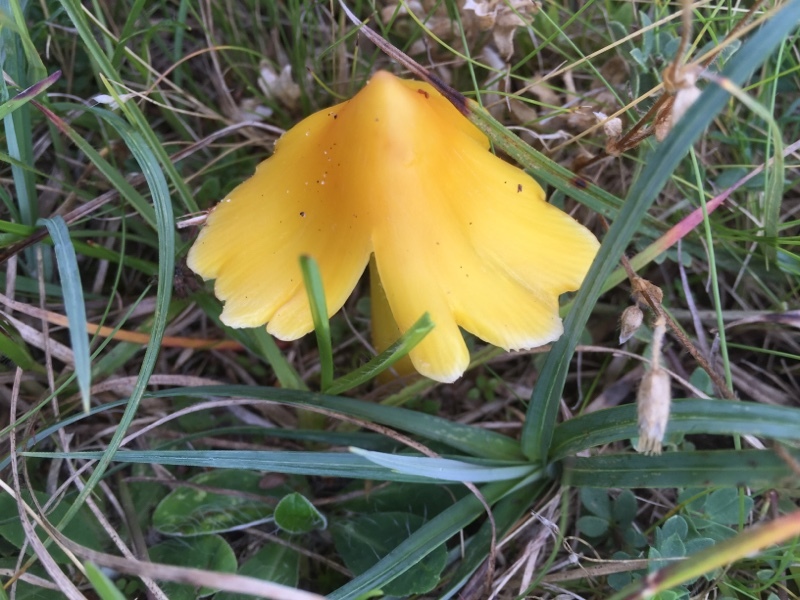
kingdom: Fungi
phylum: Basidiomycota
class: Agaricomycetes
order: Agaricales
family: Hygrophoraceae
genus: Hygrocybe
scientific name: Hygrocybe acutoconica
